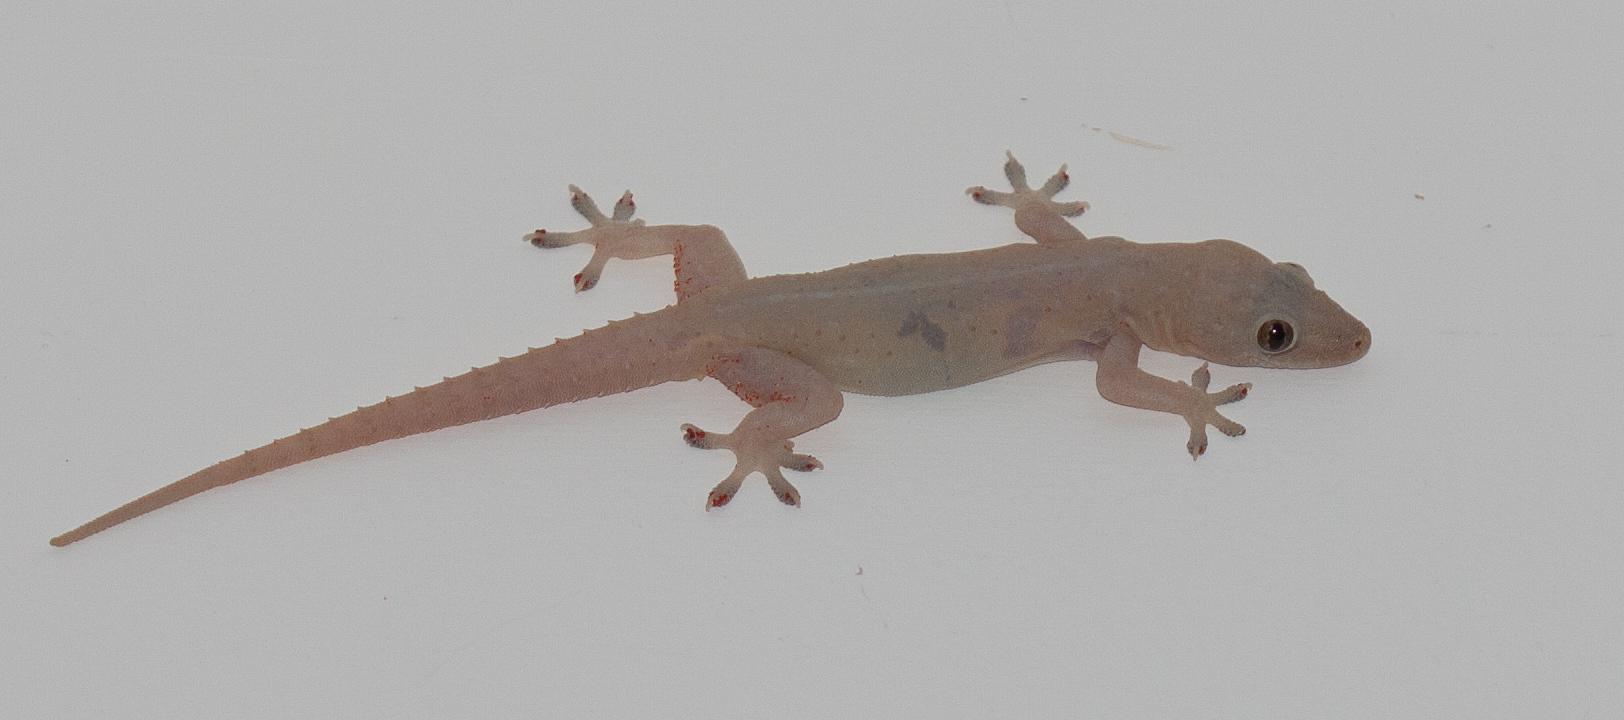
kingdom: Animalia
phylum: Chordata
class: Squamata
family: Gekkonidae
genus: Hemidactylus
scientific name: Hemidactylus frenatus
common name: Common house gecko
